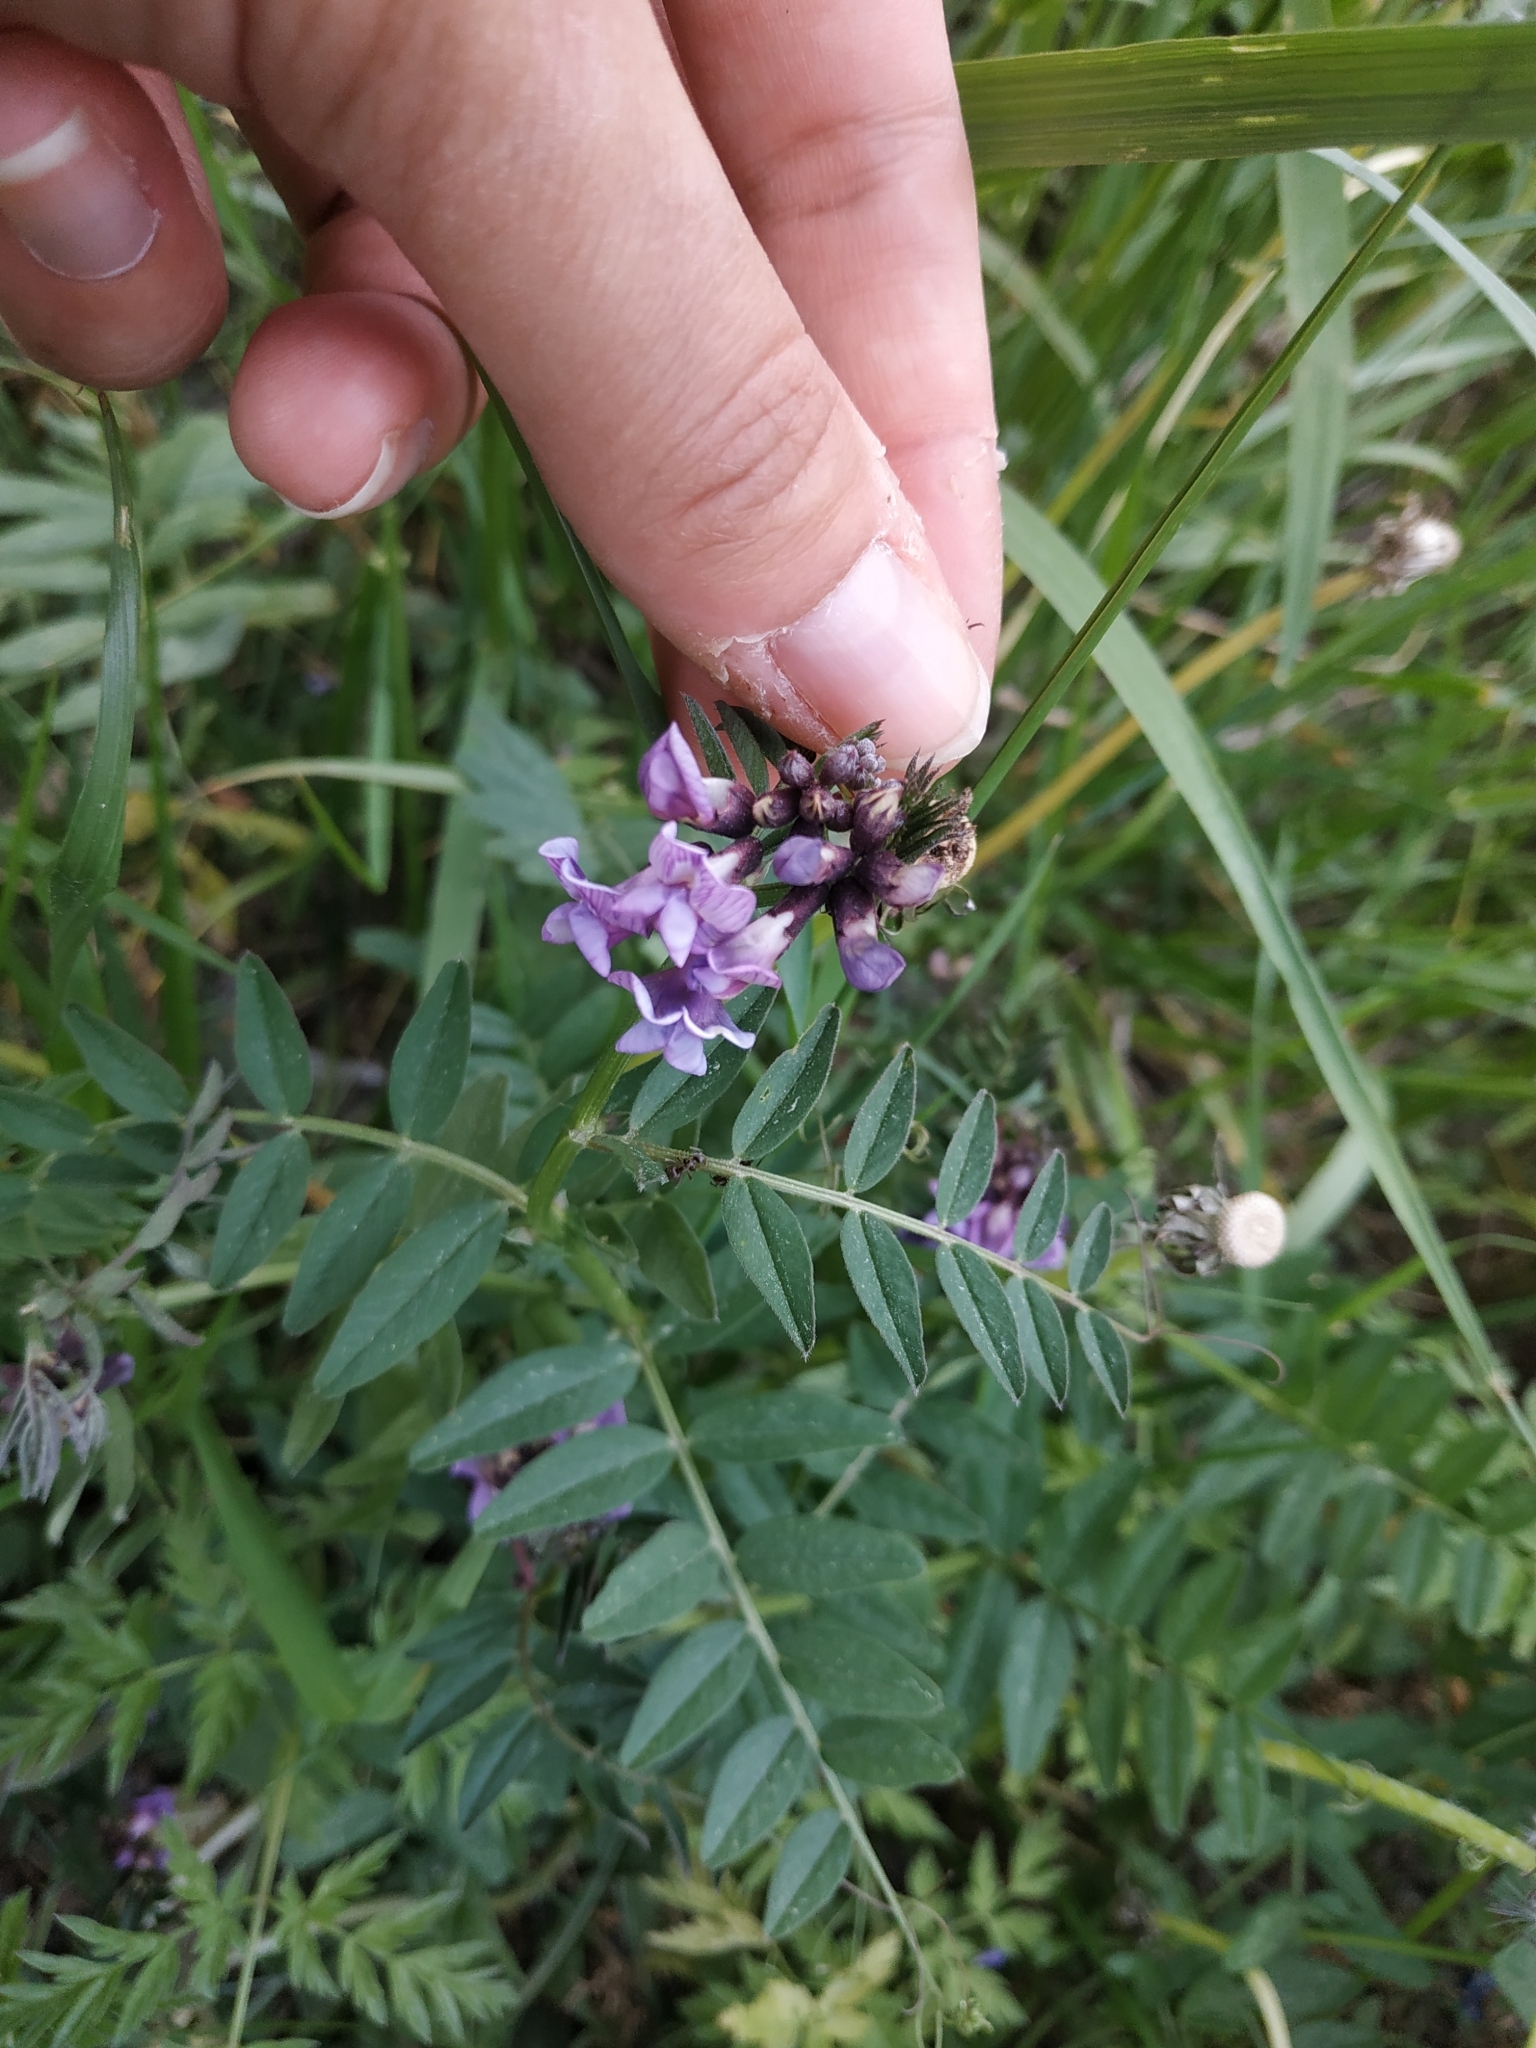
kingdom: Plantae
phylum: Tracheophyta
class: Magnoliopsida
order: Fabales
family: Fabaceae
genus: Vicia
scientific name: Vicia sepium
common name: Bush vetch
